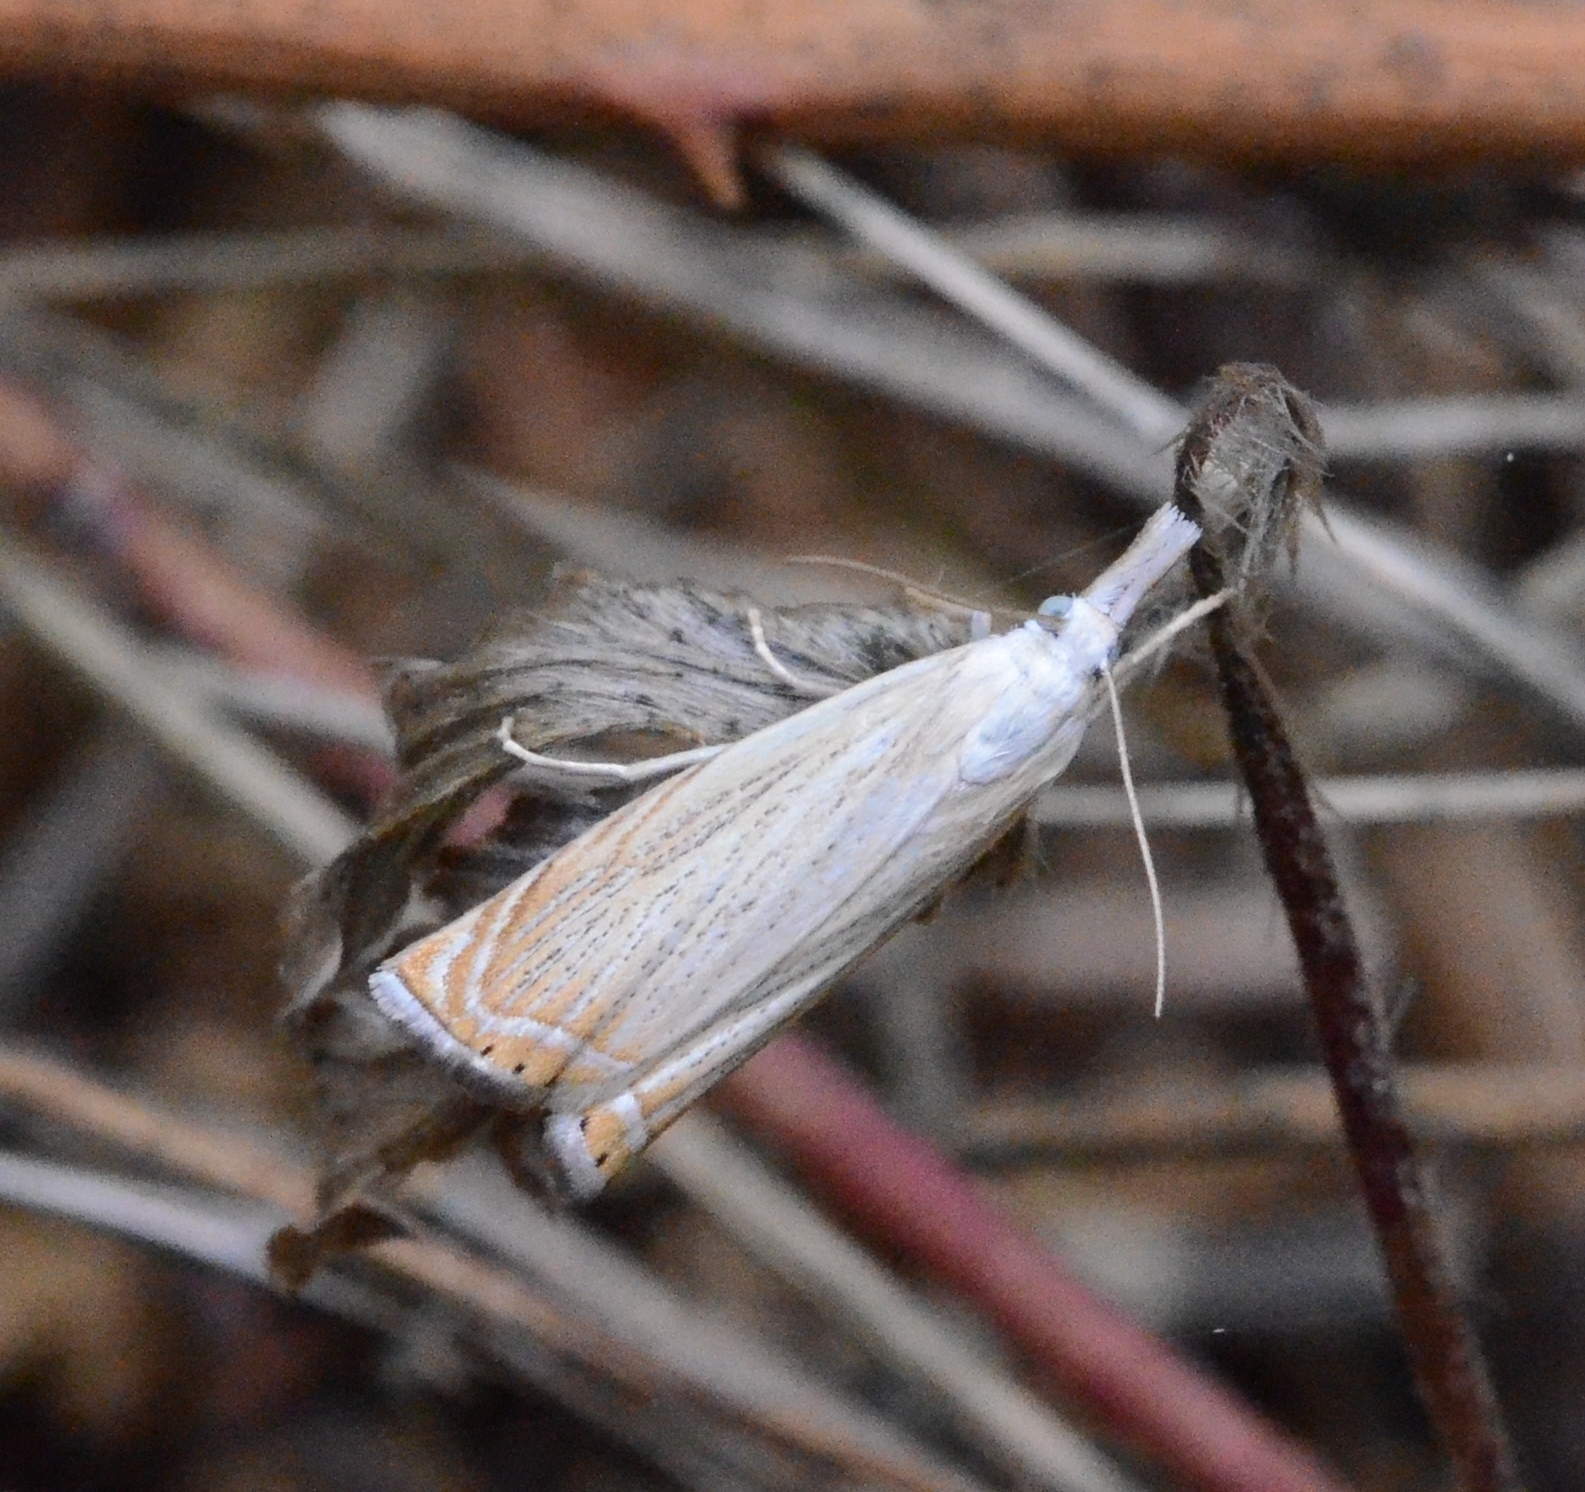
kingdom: Animalia
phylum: Arthropoda
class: Insecta
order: Lepidoptera
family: Crambidae
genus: Chrysoteuchia
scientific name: Chrysoteuchia culmella
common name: Garden grass-veneer
